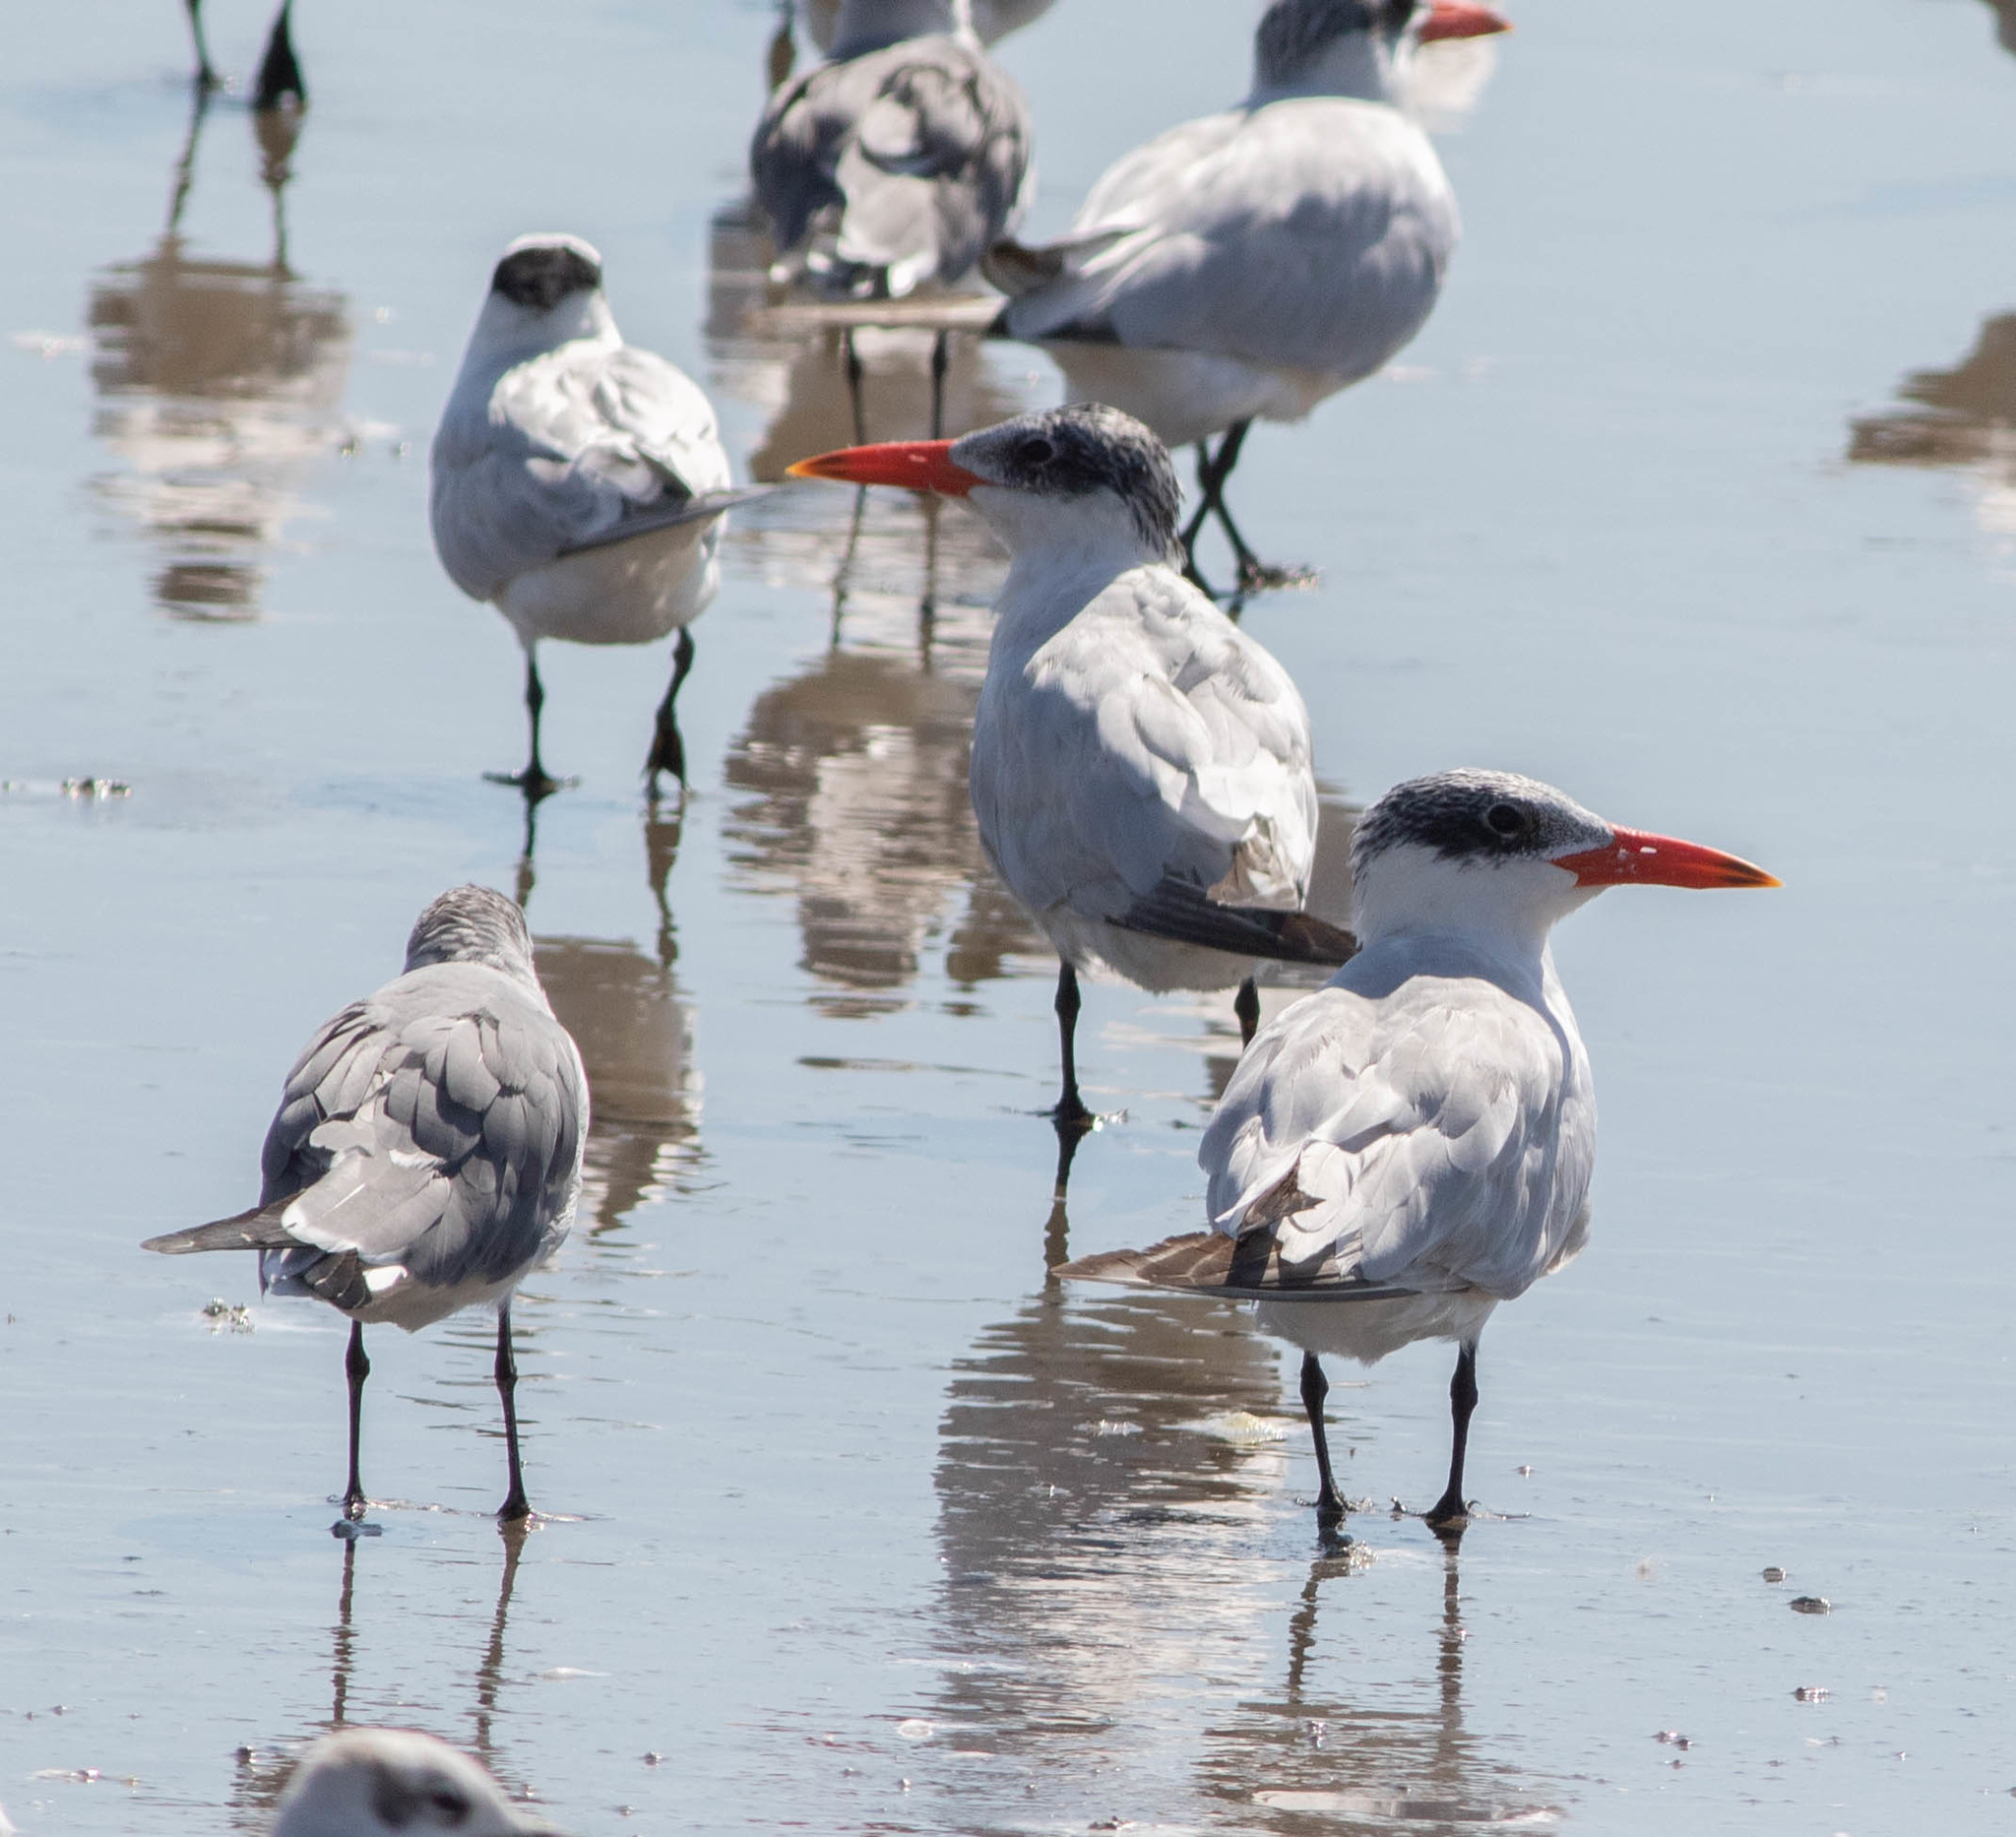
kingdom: Animalia
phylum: Chordata
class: Aves
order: Charadriiformes
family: Laridae
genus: Hydroprogne
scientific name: Hydroprogne caspia
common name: Caspian tern
